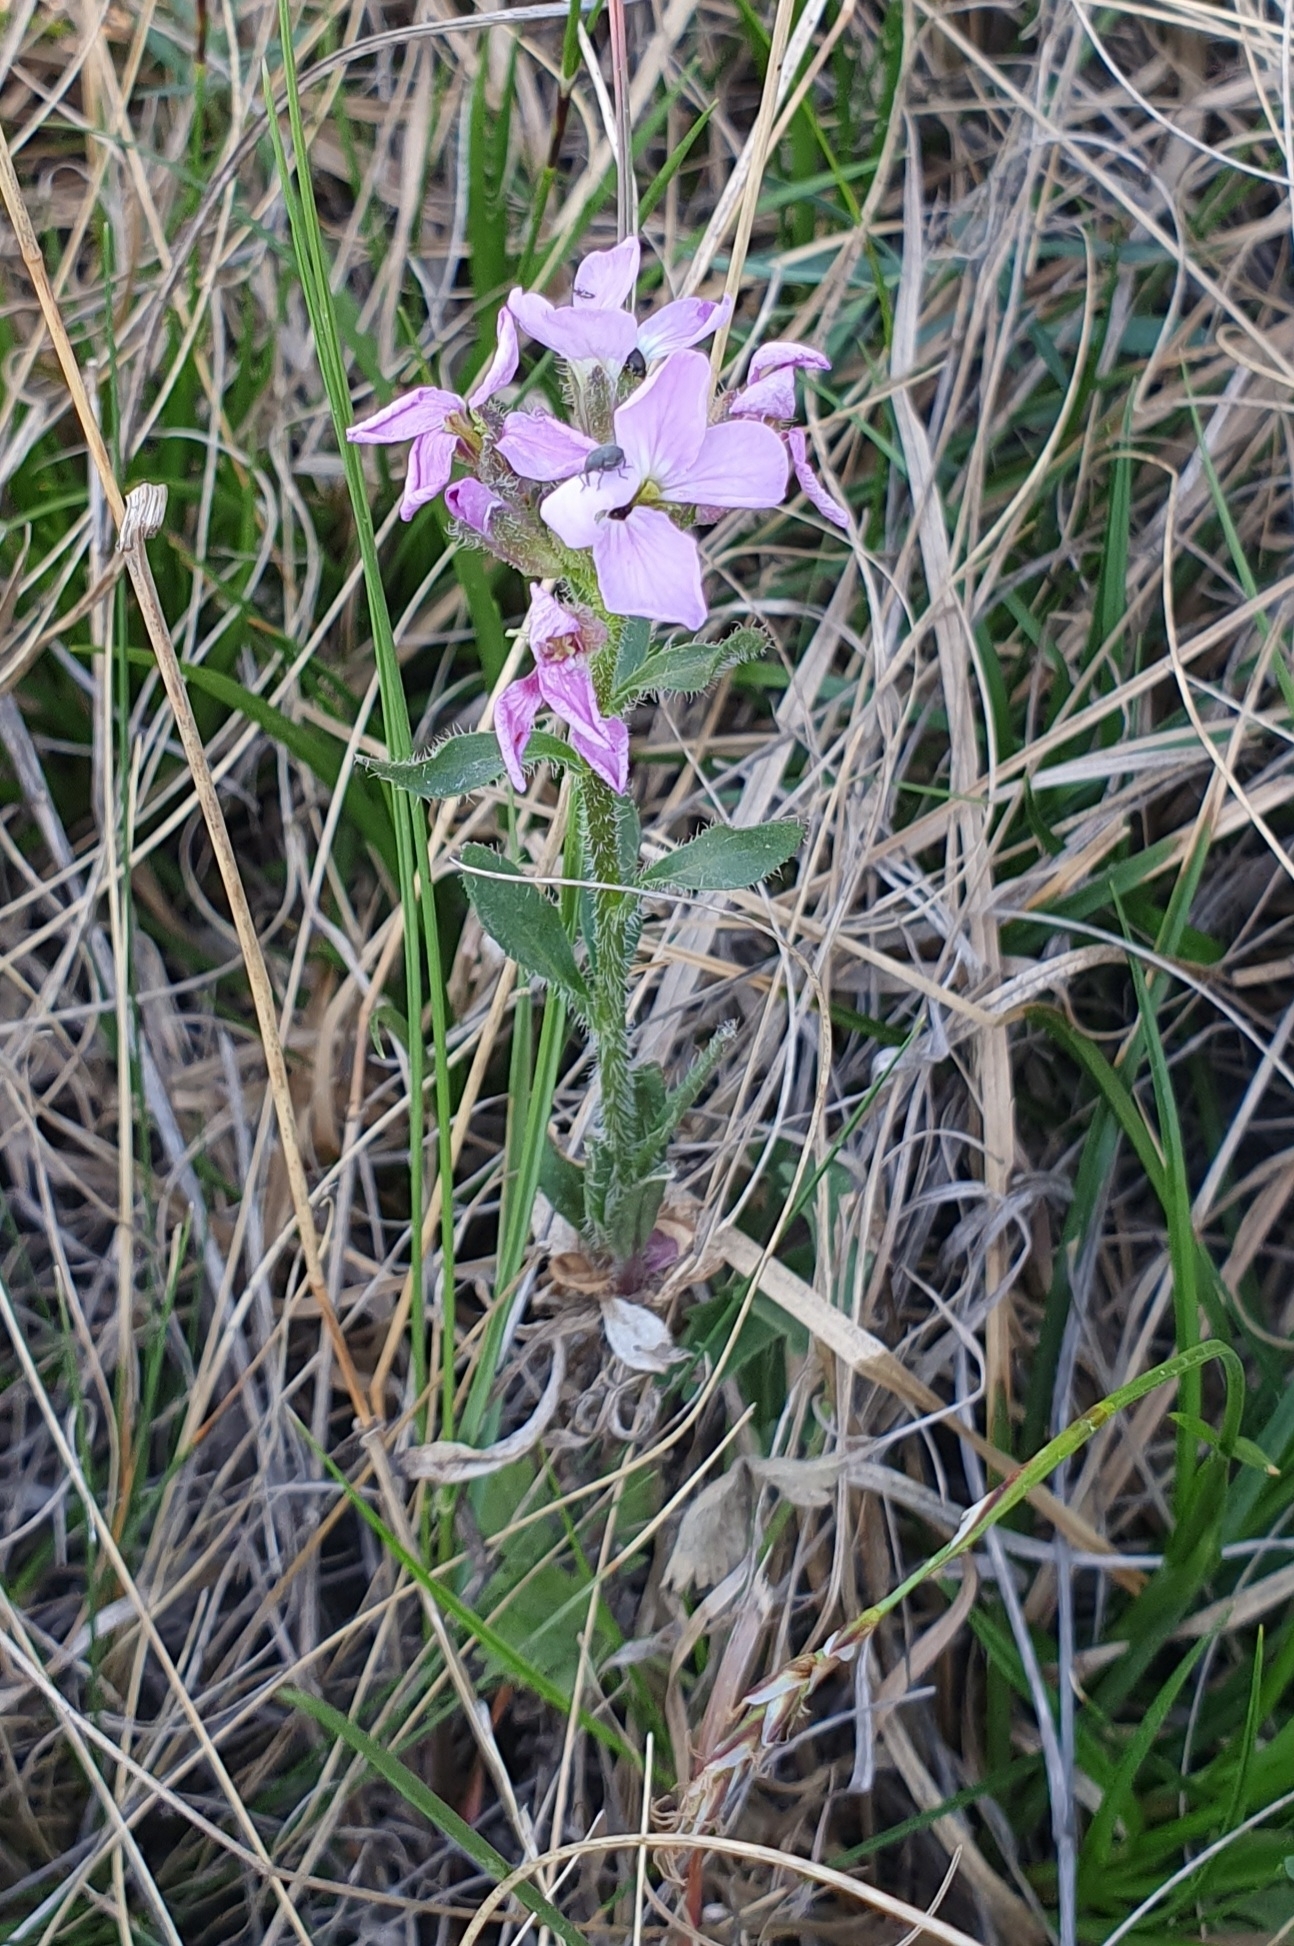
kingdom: Plantae
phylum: Tracheophyta
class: Magnoliopsida
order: Brassicales
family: Brassicaceae
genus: Clausia
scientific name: Clausia aprica
